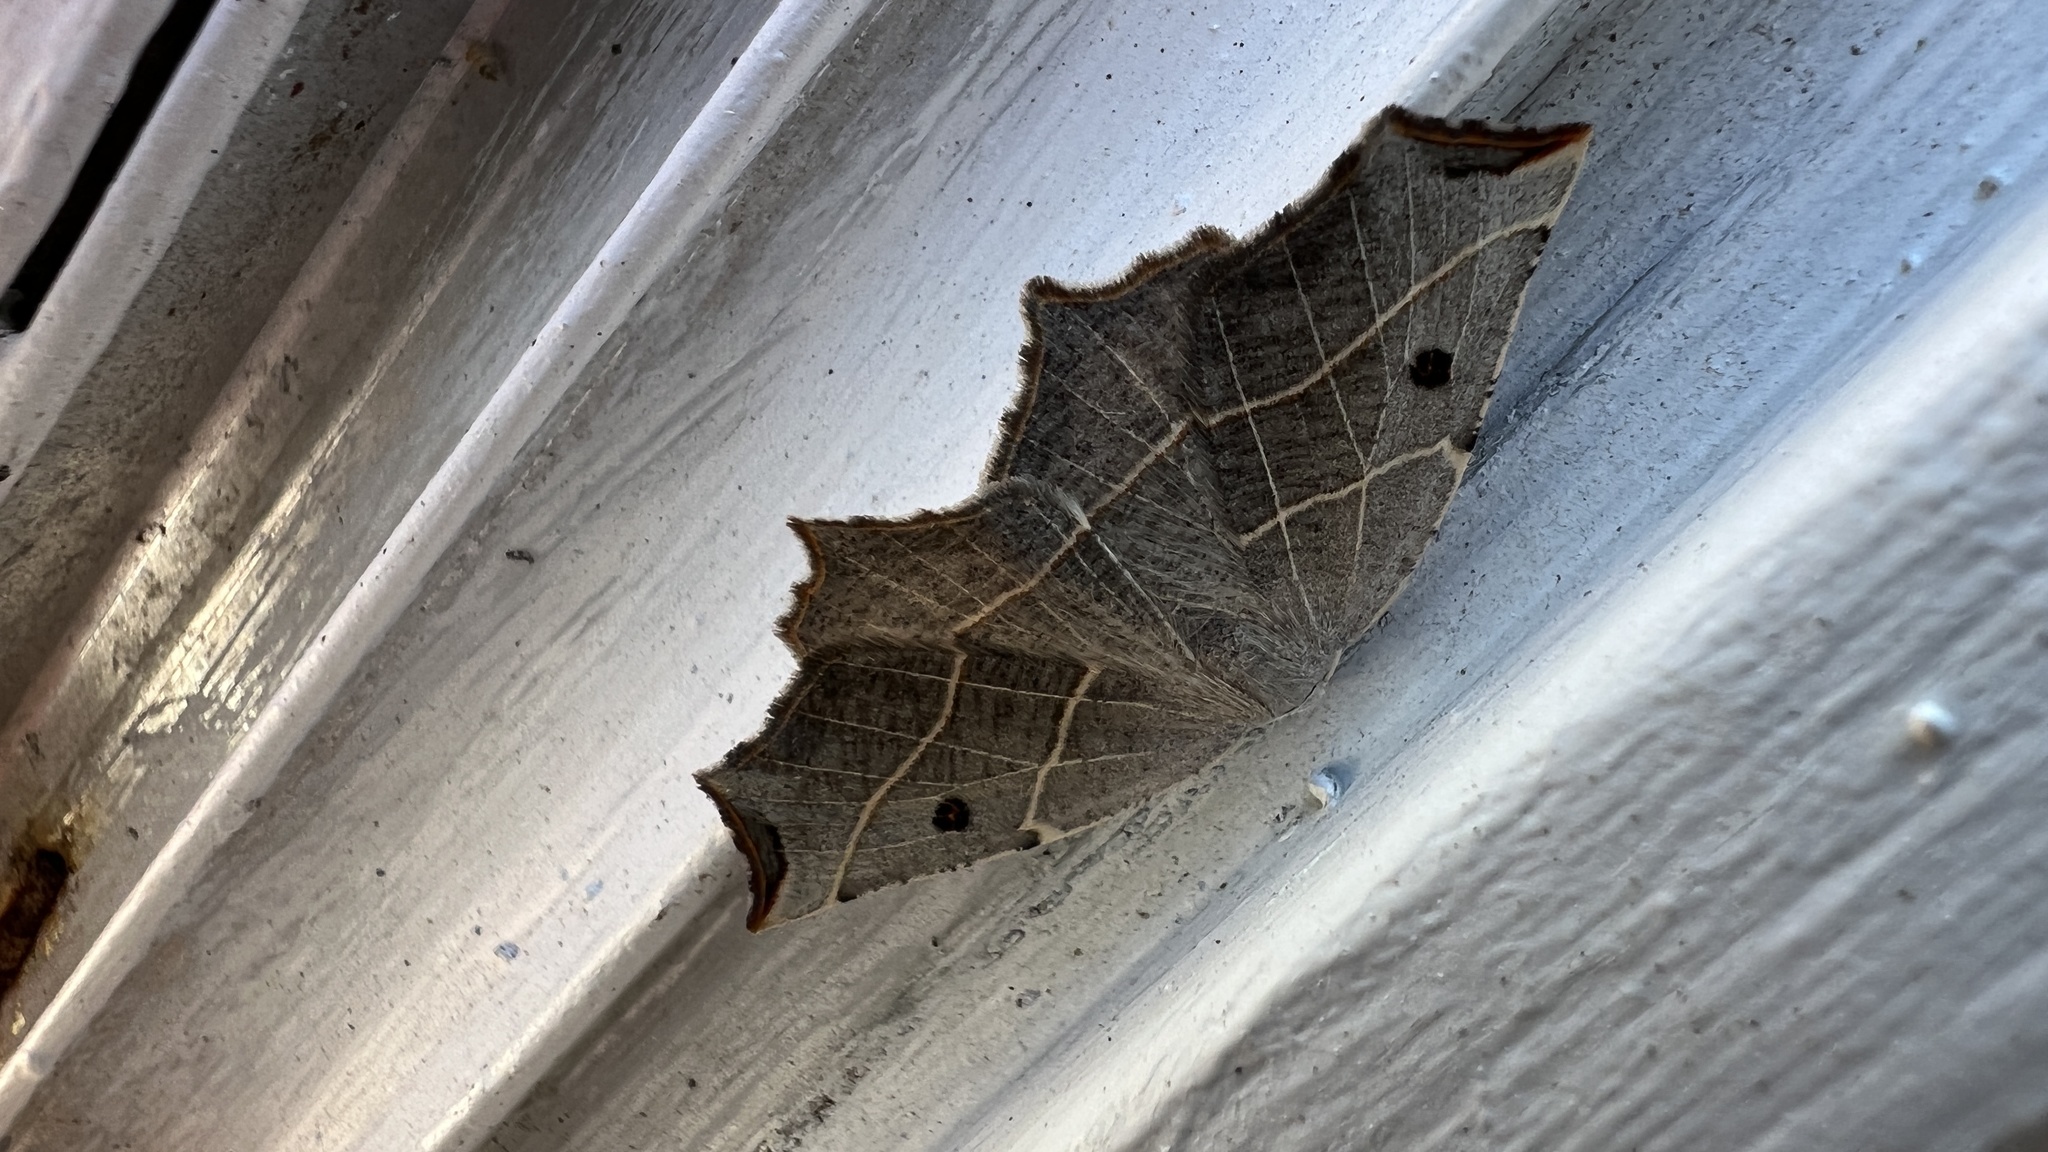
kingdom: Animalia
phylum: Arthropoda
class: Insecta
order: Lepidoptera
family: Geometridae
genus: Metanema
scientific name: Metanema inatomaria
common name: Pale metanema
